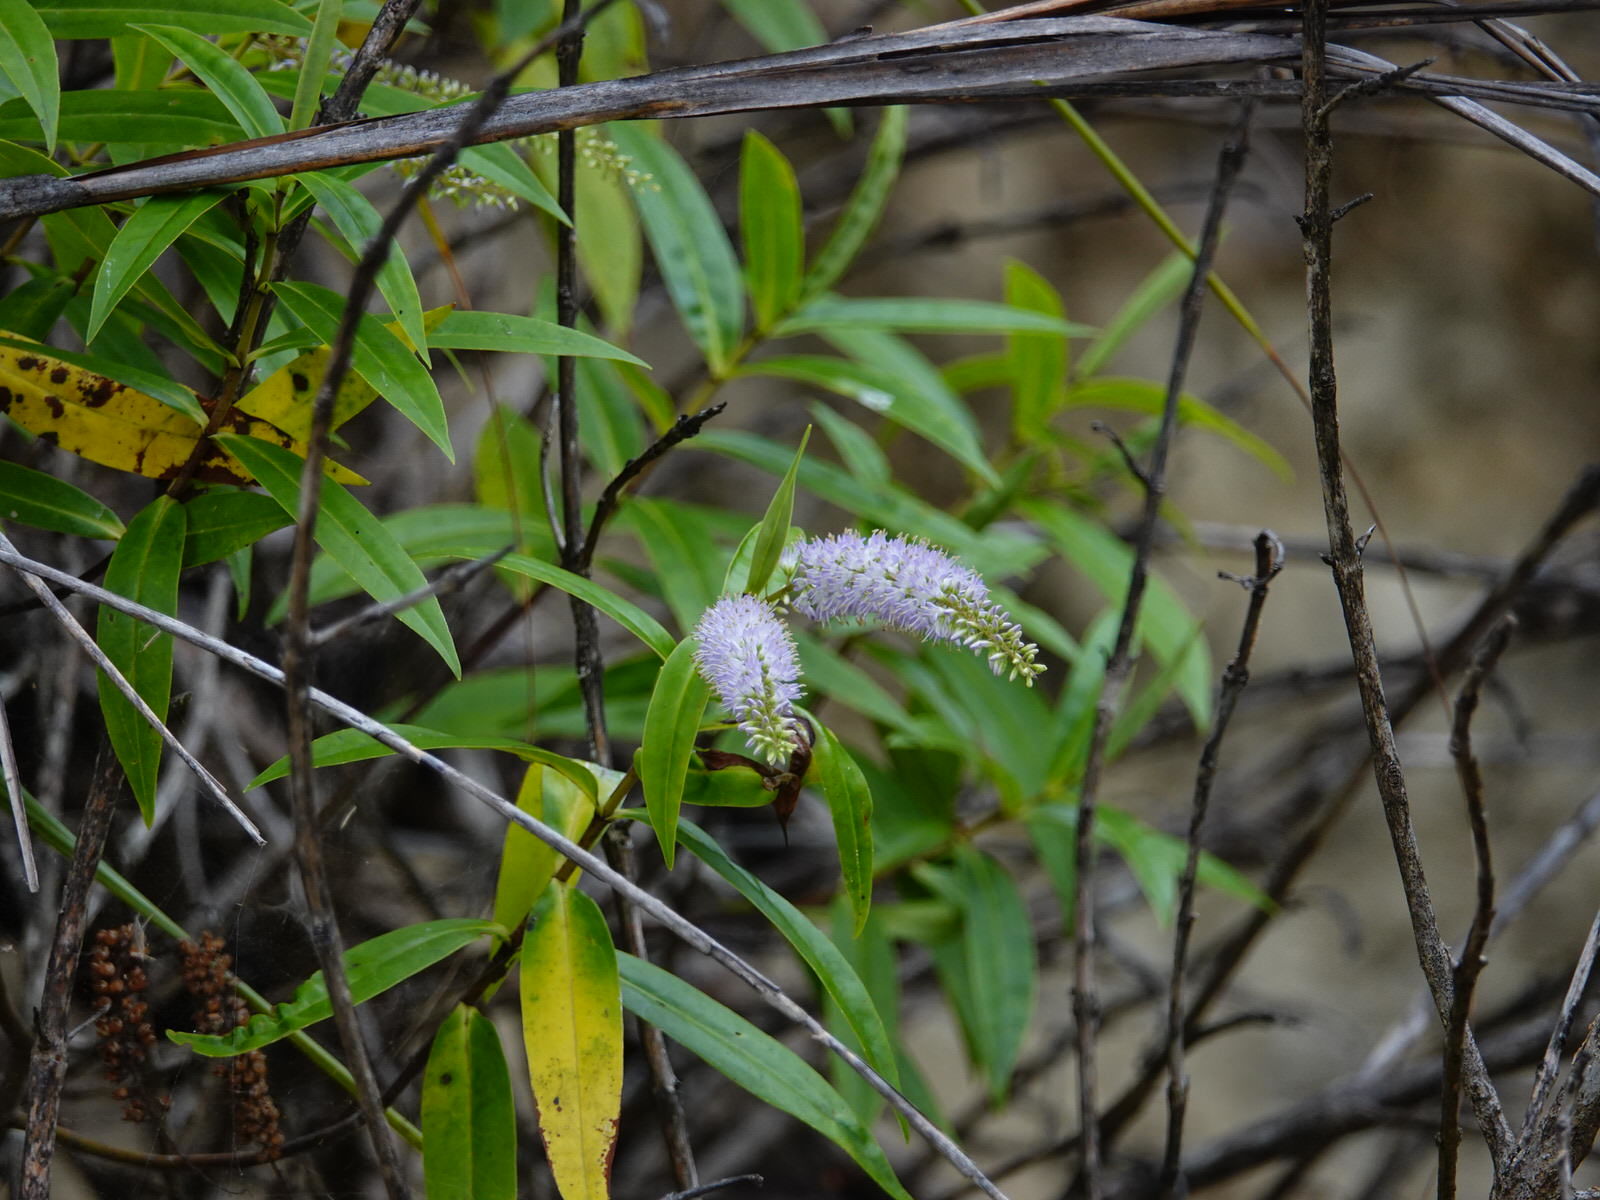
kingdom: Plantae
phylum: Tracheophyta
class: Magnoliopsida
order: Lamiales
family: Plantaginaceae
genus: Veronica
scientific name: Veronica stricta
